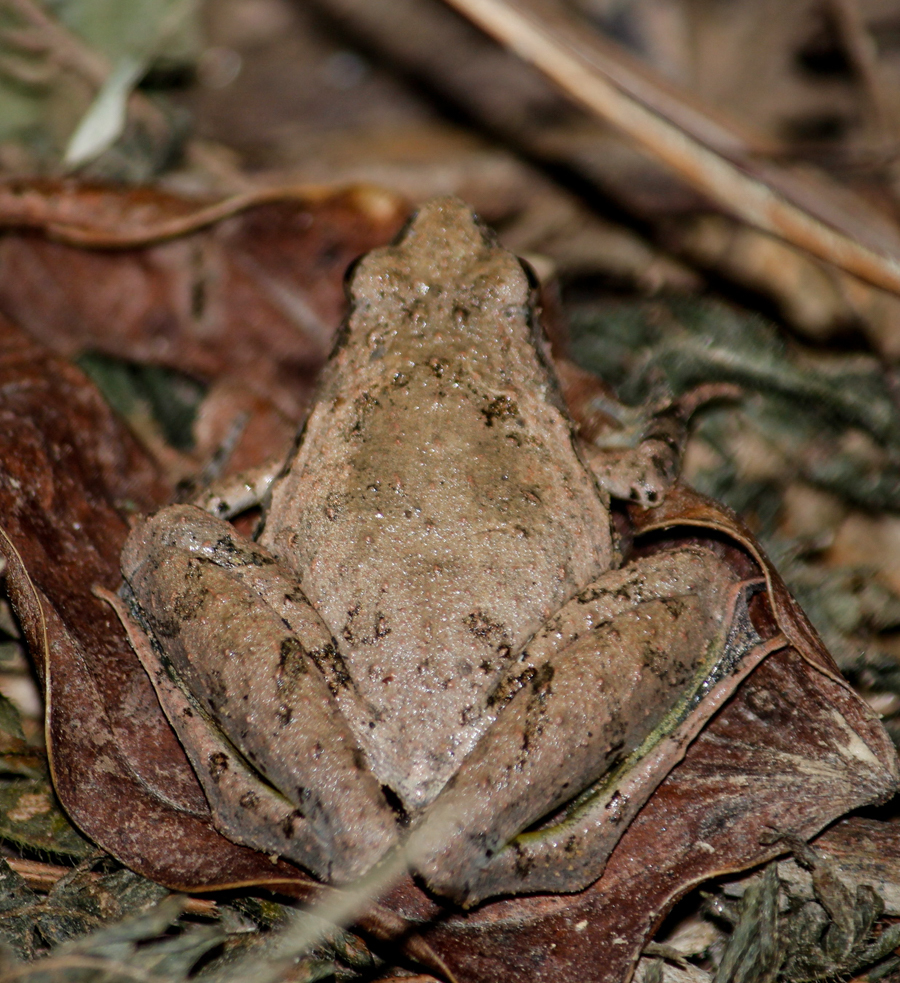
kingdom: Animalia
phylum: Chordata
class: Amphibia
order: Anura
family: Microhylidae
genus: Microhyla
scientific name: Microhyla berdmorei
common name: Berdmore’s narrow-mouthed frog,large pygmy frog
